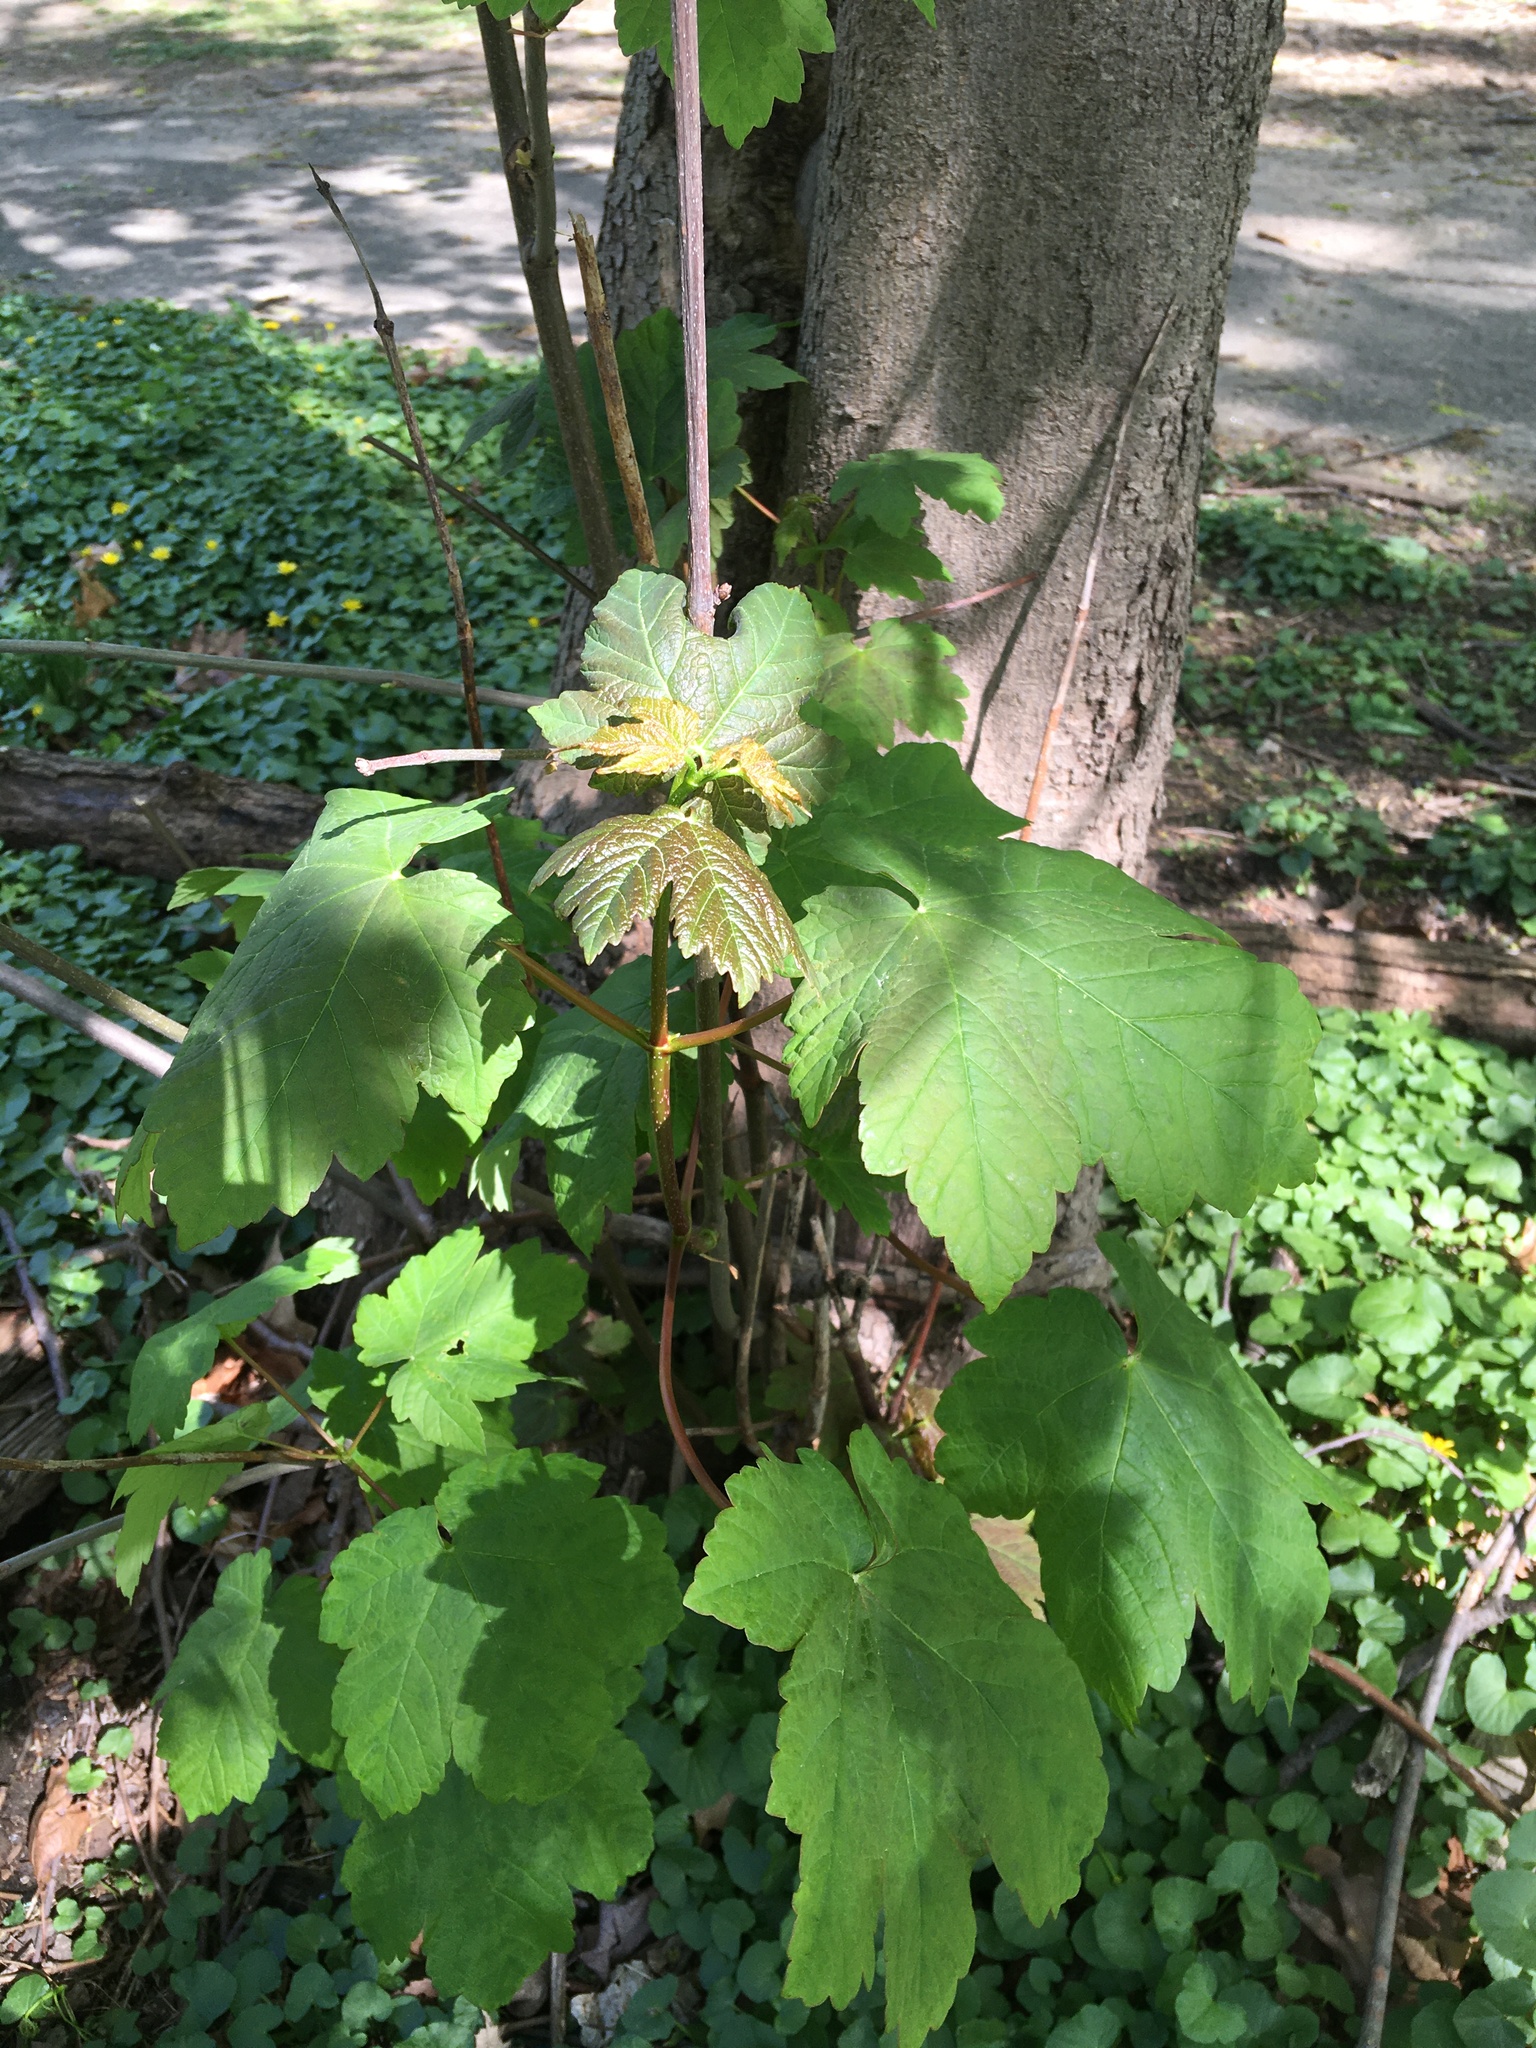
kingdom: Plantae
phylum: Tracheophyta
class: Magnoliopsida
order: Sapindales
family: Sapindaceae
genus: Acer
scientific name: Acer pseudoplatanus
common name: Sycamore
